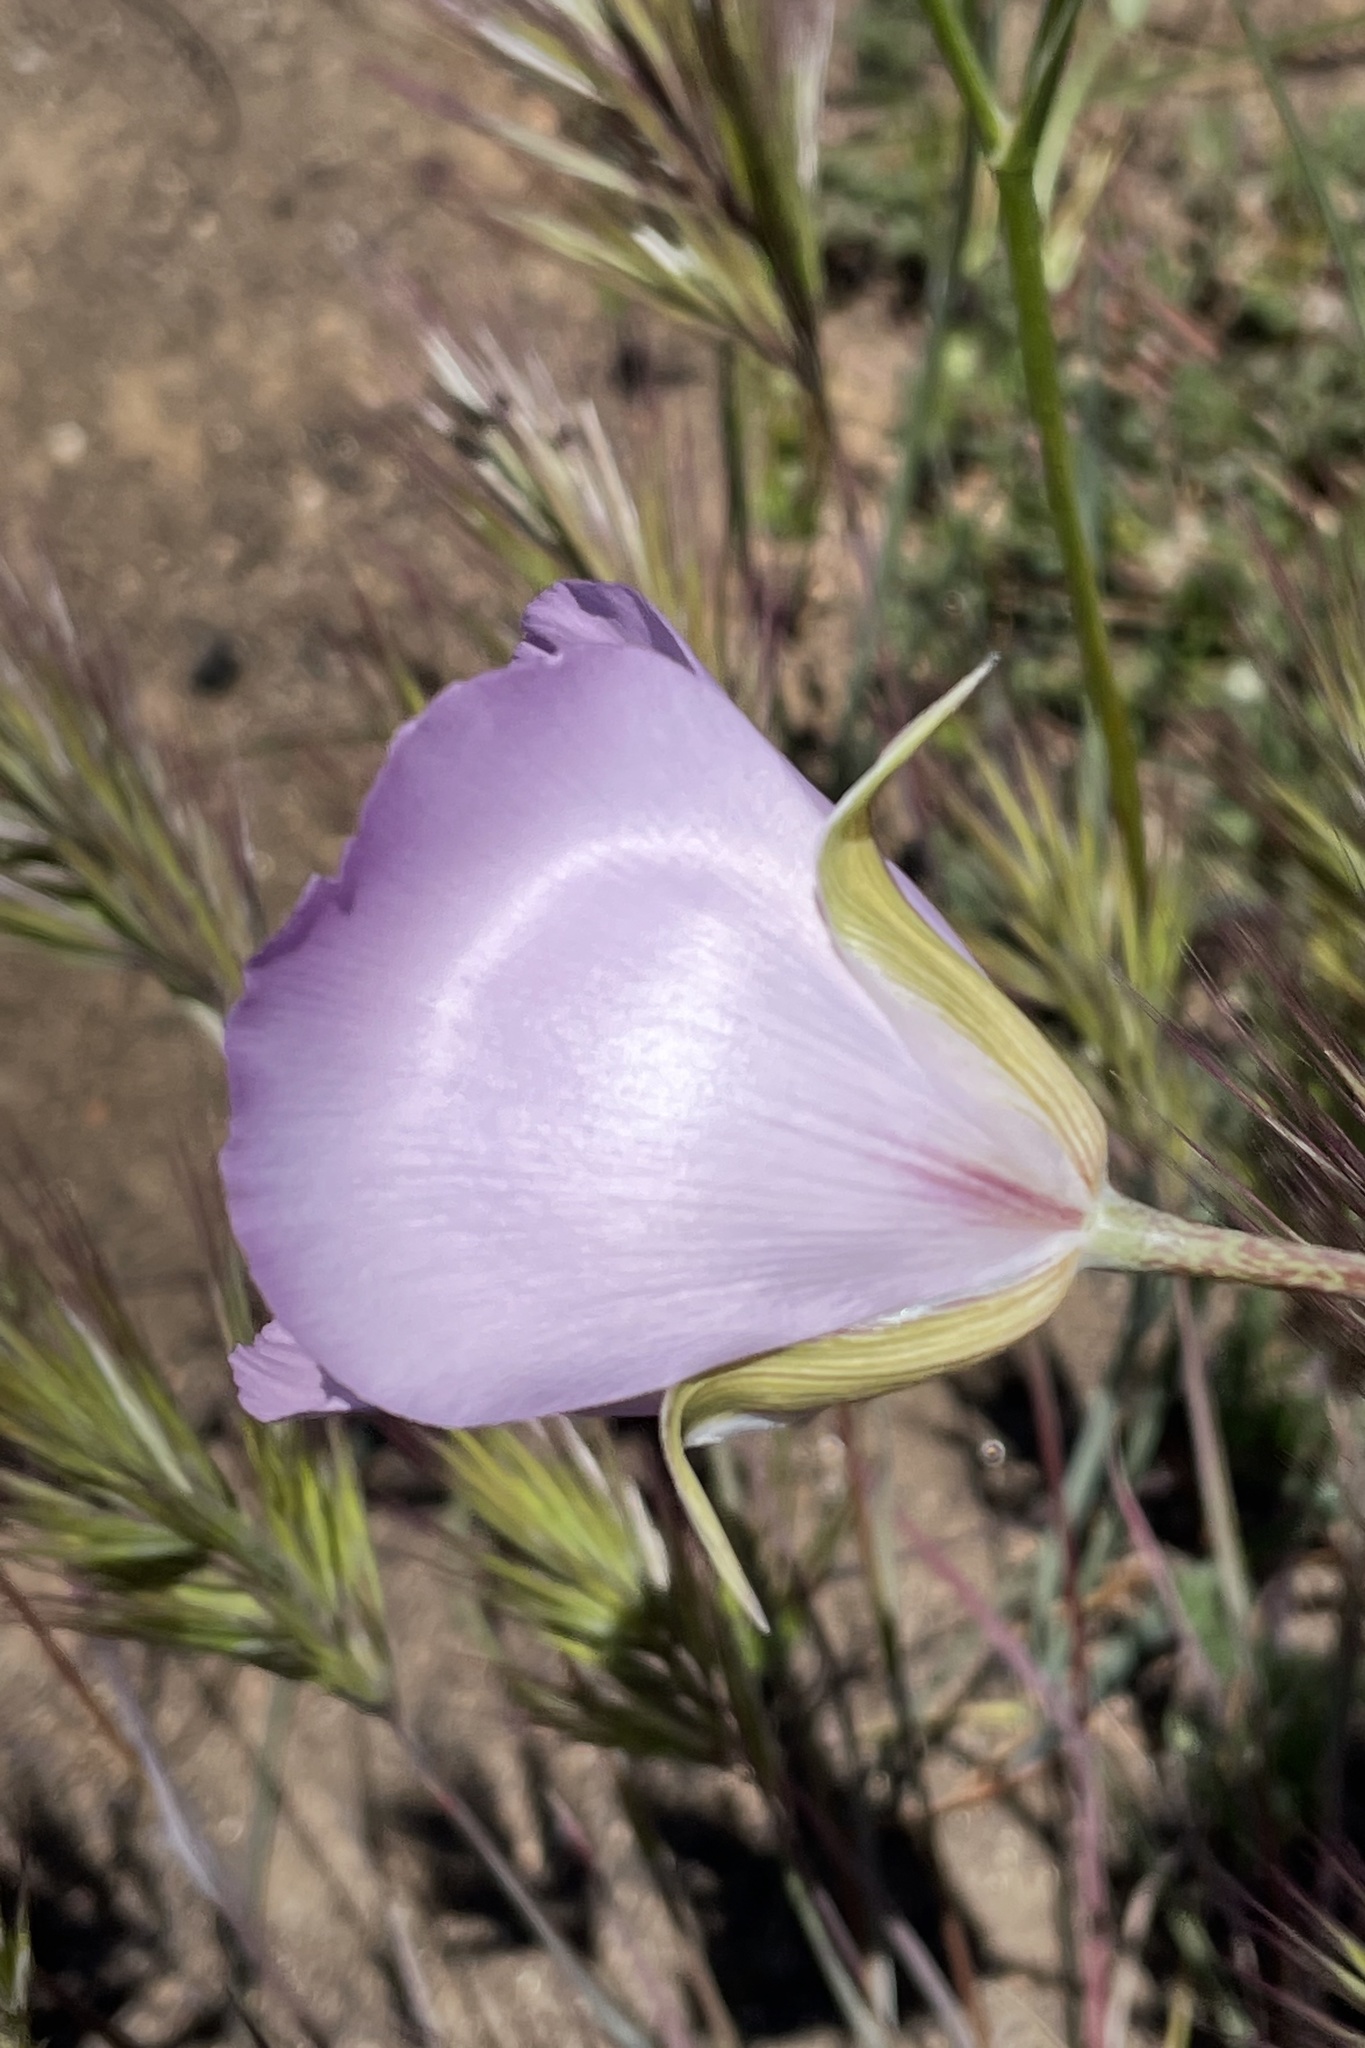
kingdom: Plantae
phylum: Tracheophyta
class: Liliopsida
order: Liliales
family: Liliaceae
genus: Calochortus
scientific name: Calochortus splendens
